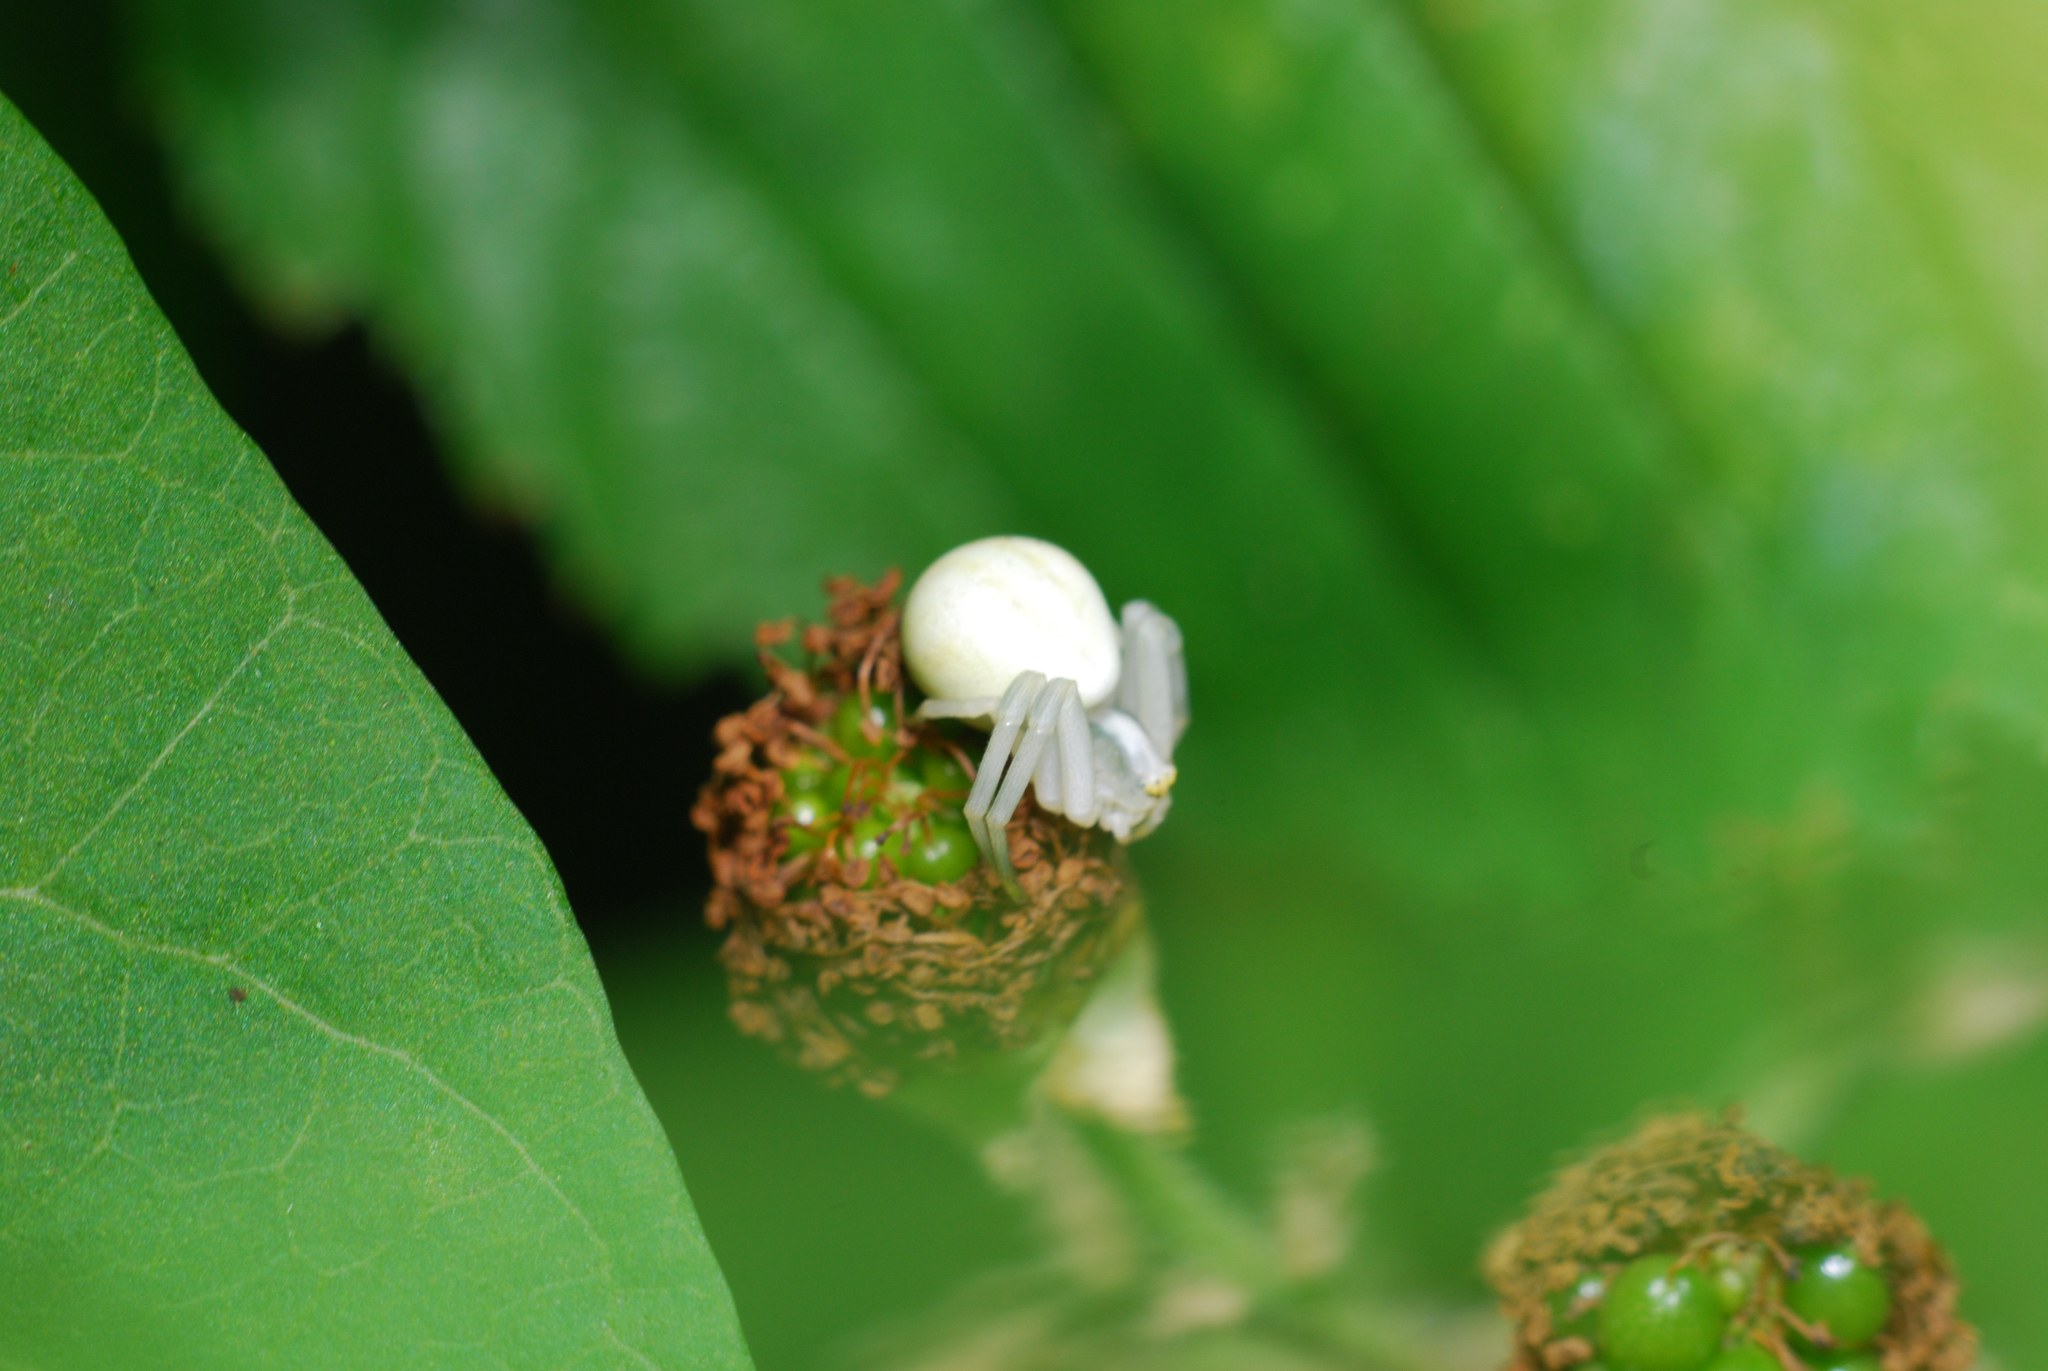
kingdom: Animalia
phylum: Arthropoda
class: Arachnida
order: Araneae
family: Thomisidae
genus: Misumena
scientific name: Misumena vatia
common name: Goldenrod crab spider
